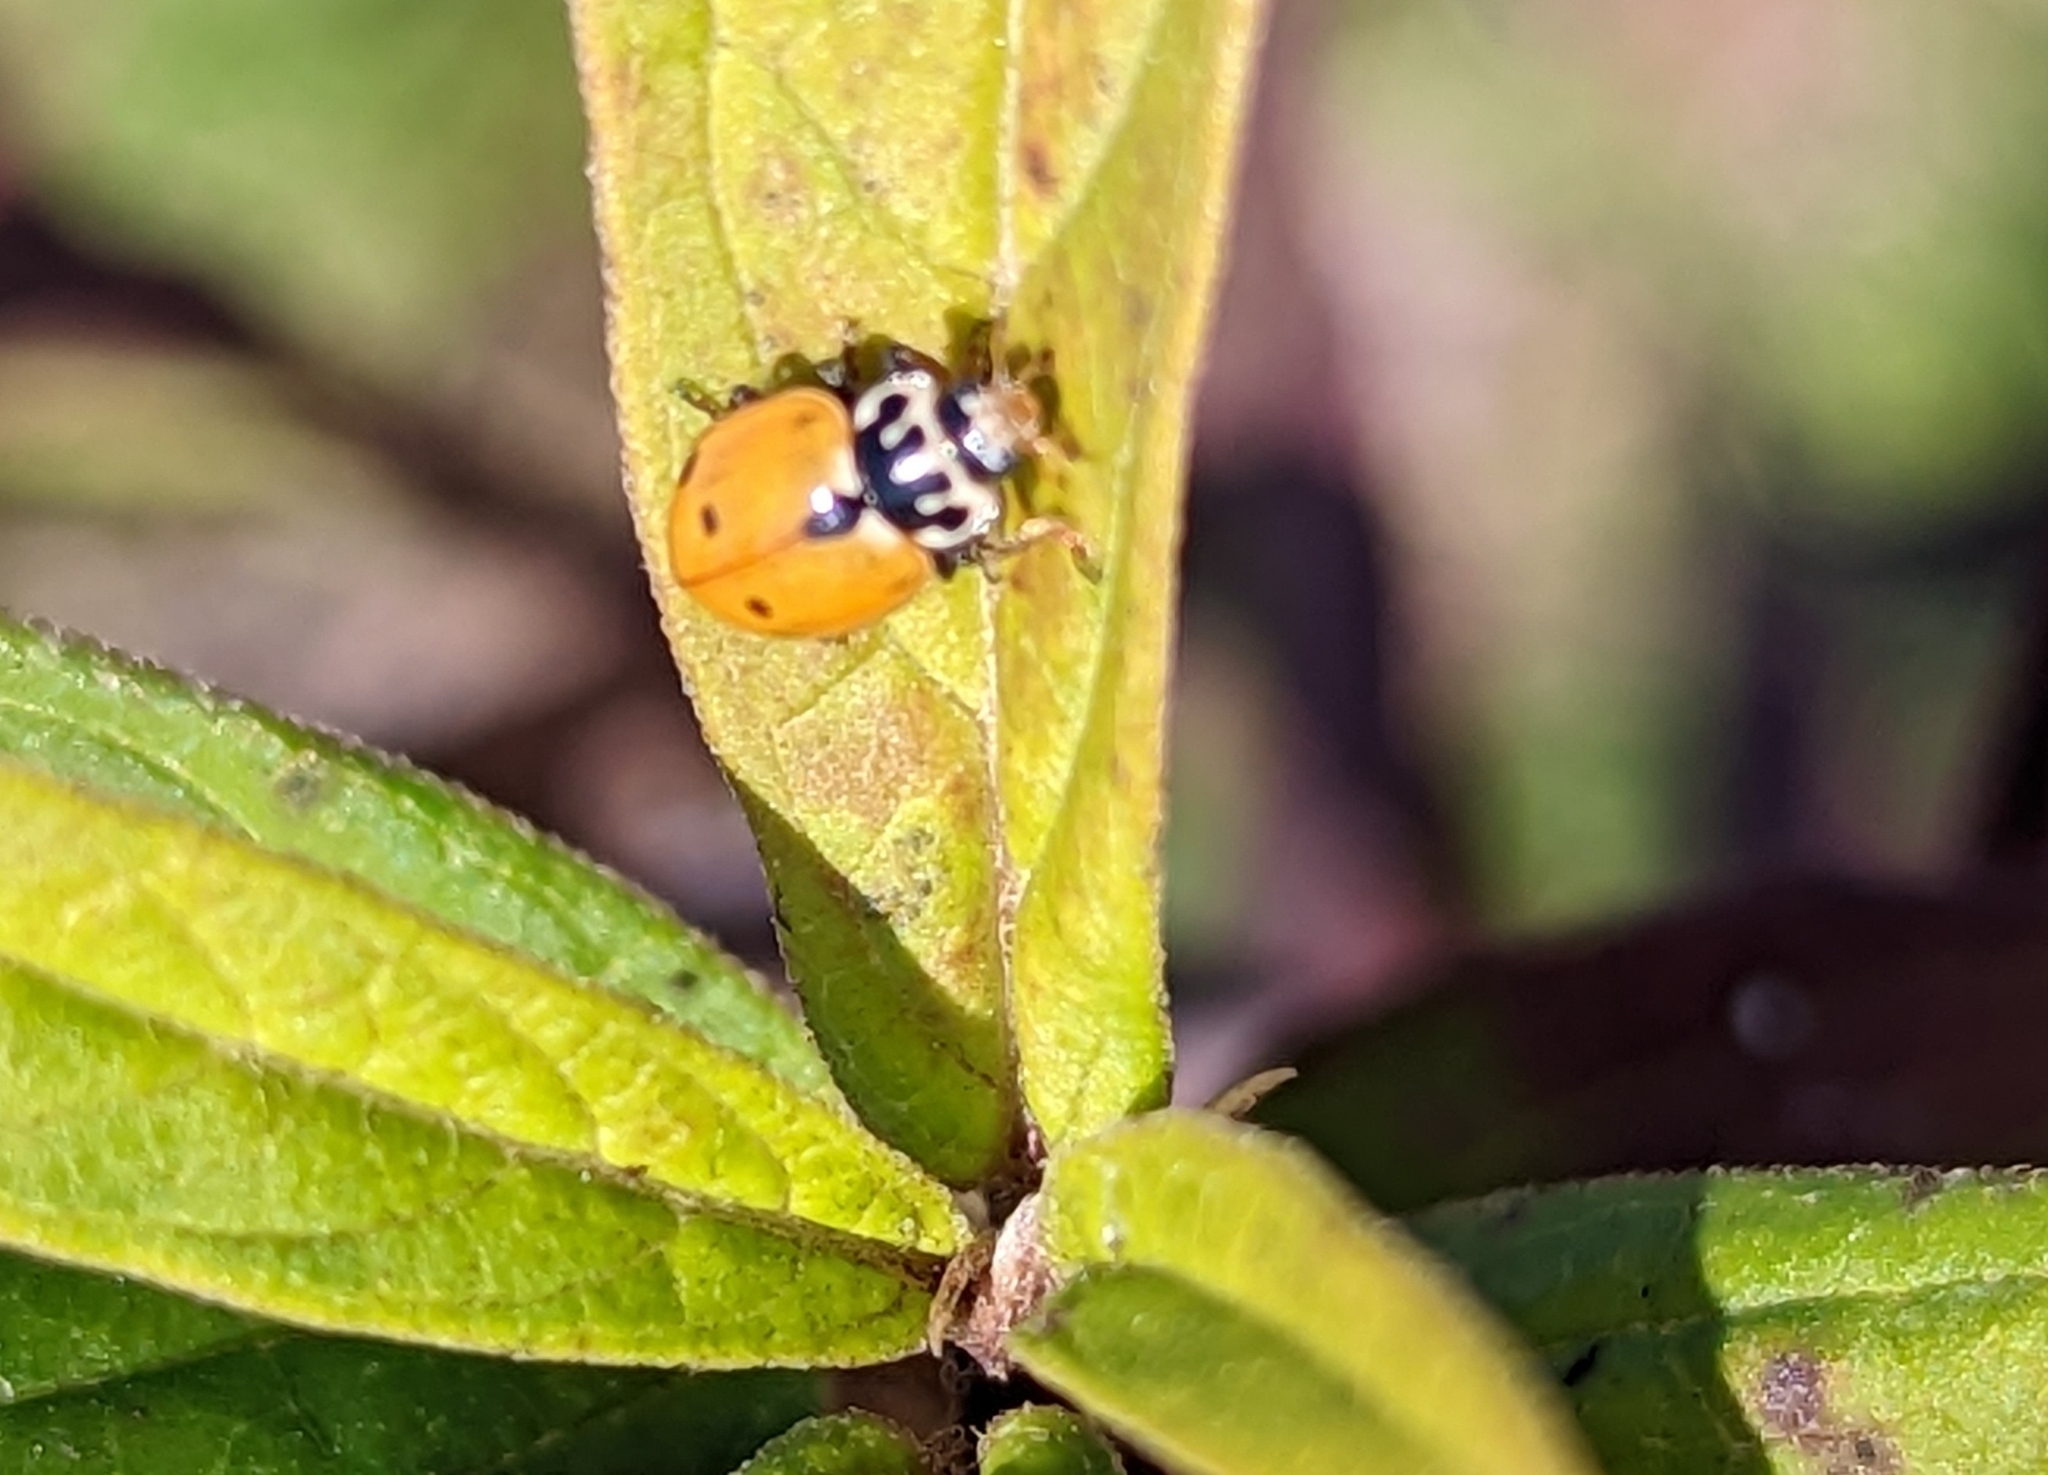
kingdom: Animalia
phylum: Arthropoda
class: Insecta
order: Coleoptera
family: Coccinellidae
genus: Hippodamia
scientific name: Hippodamia variegata
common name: Ladybird beetle
